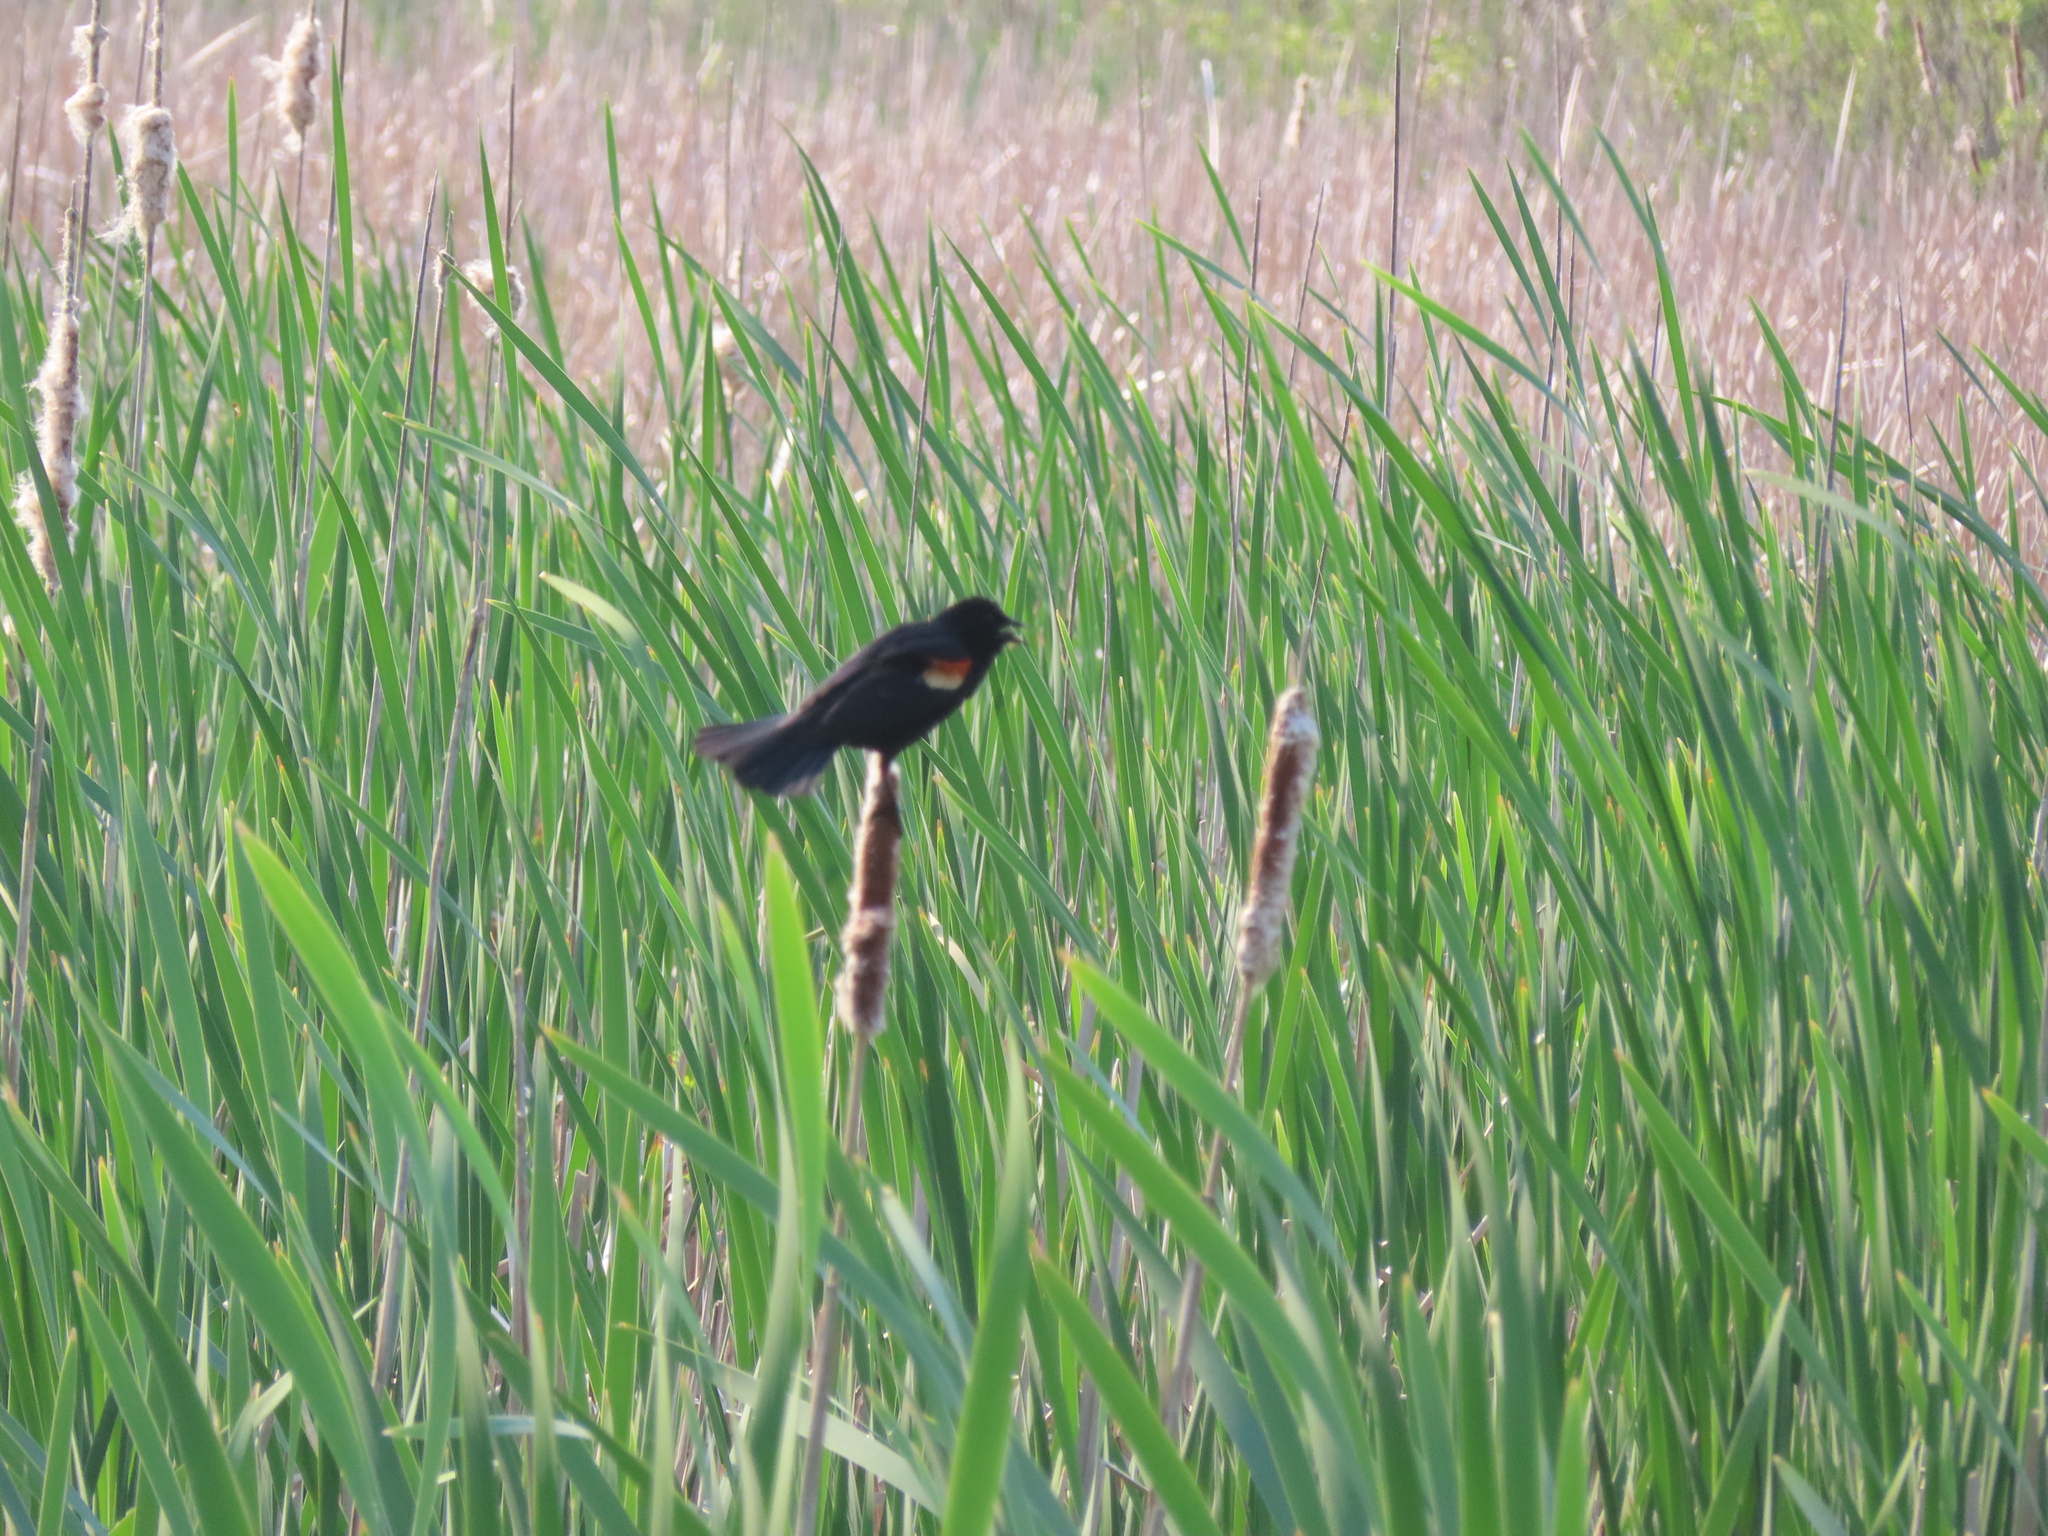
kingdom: Animalia
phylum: Chordata
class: Aves
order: Passeriformes
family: Icteridae
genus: Agelaius
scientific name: Agelaius phoeniceus
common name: Red-winged blackbird
